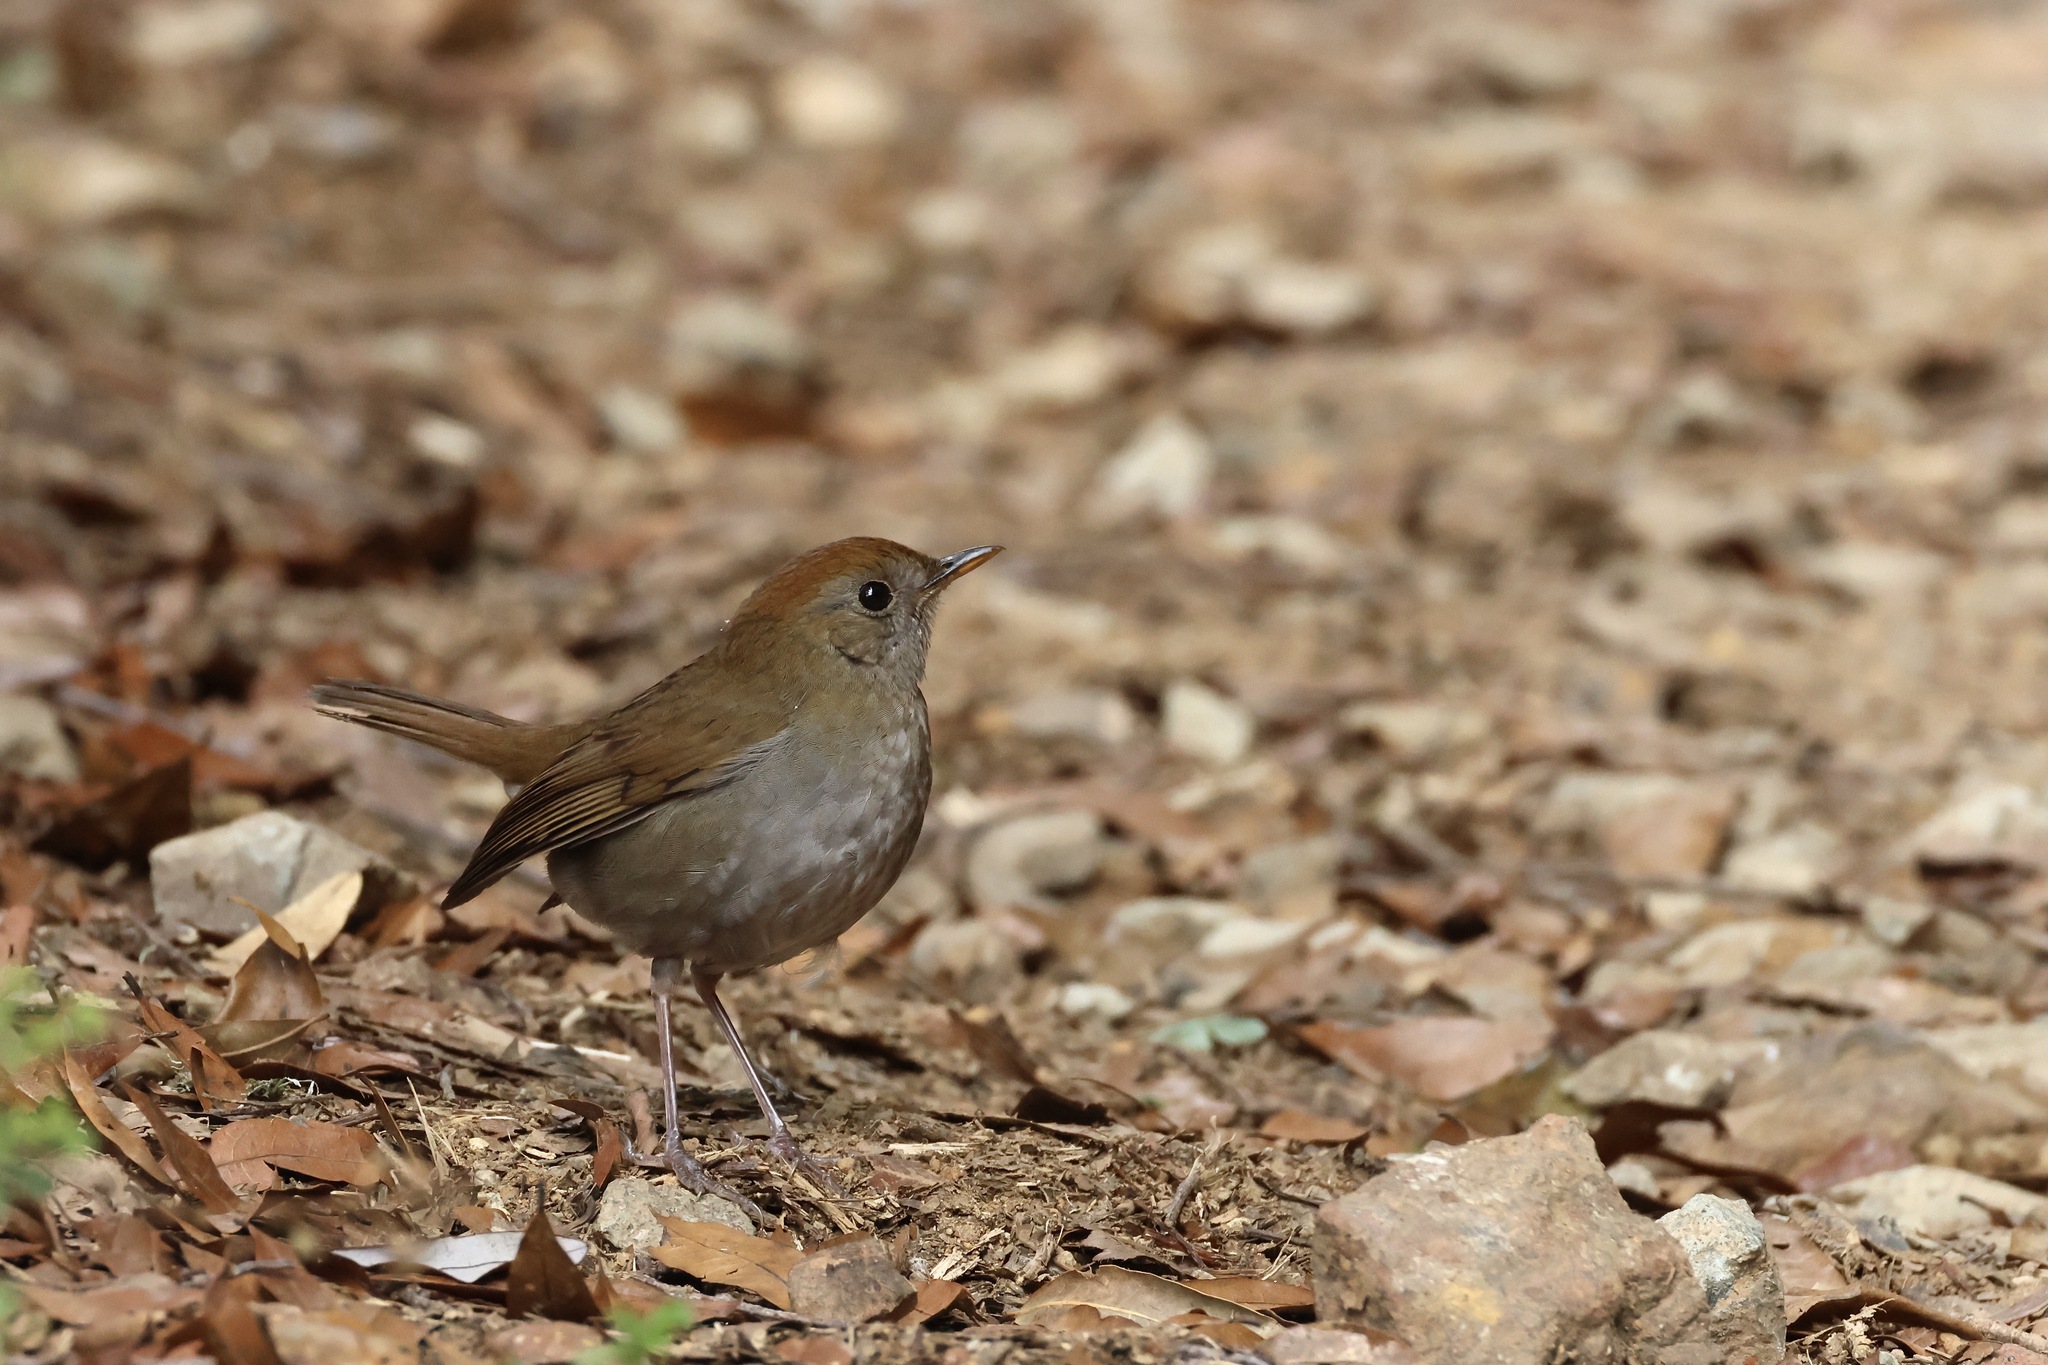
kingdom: Animalia
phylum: Chordata
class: Aves
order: Passeriformes
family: Turdidae
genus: Catharus
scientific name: Catharus frantzii
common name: Ruddy-capped nightingale-thrush
